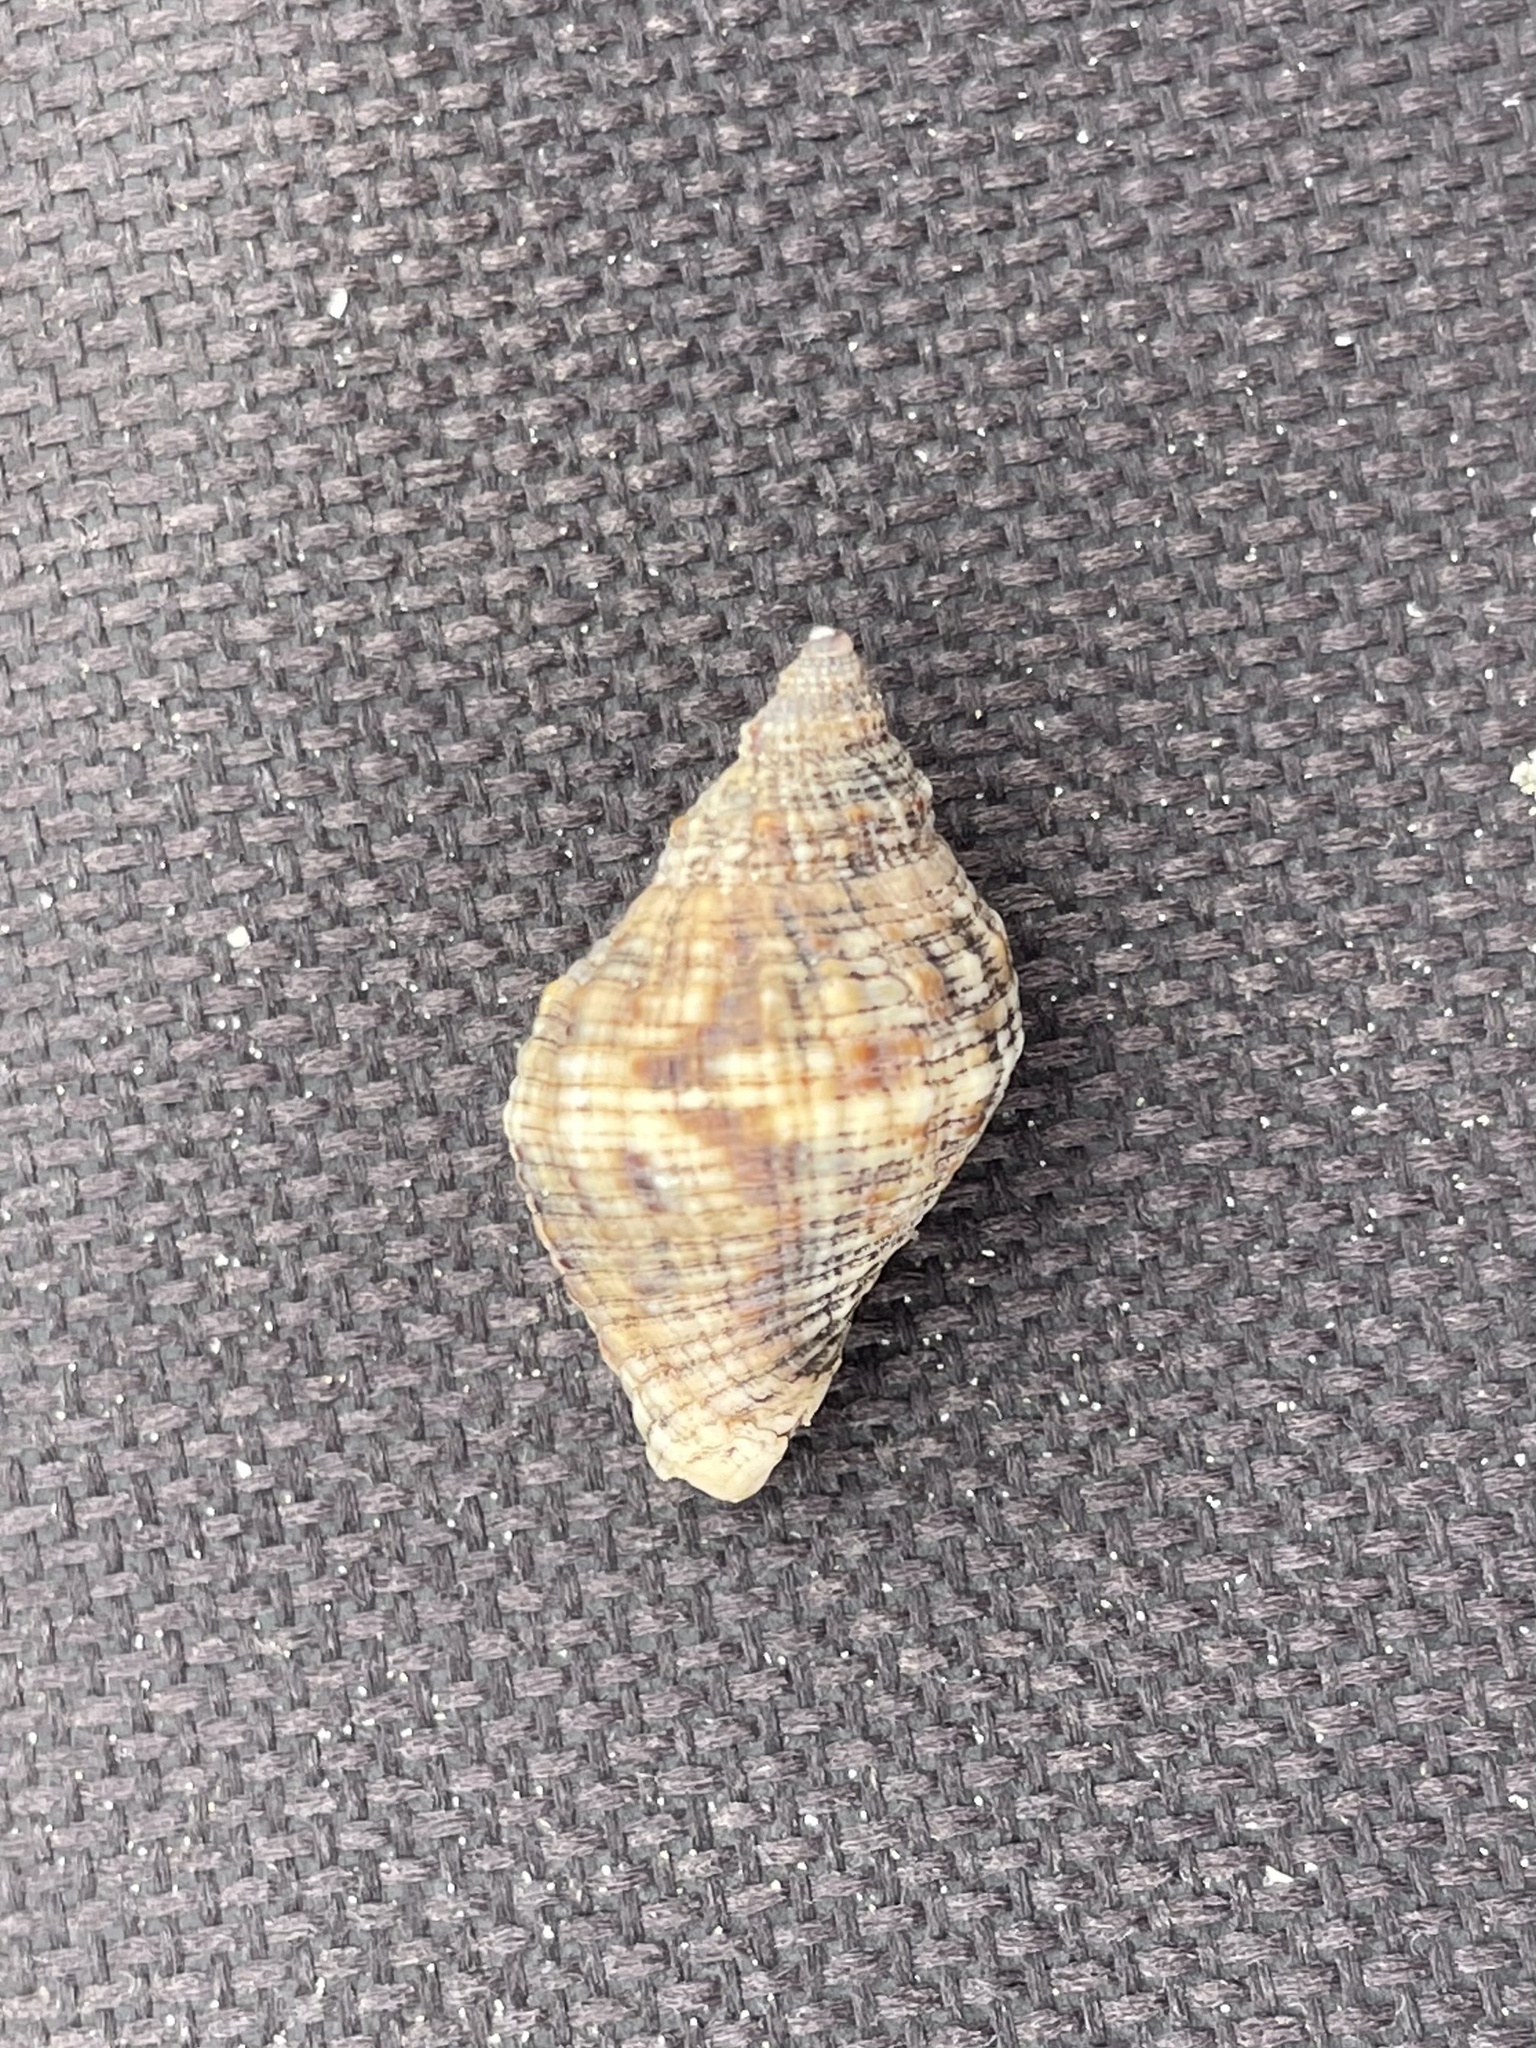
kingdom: Animalia
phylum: Mollusca
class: Gastropoda
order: Neogastropoda
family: Muricidae
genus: Stramonita
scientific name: Stramonita floridana
